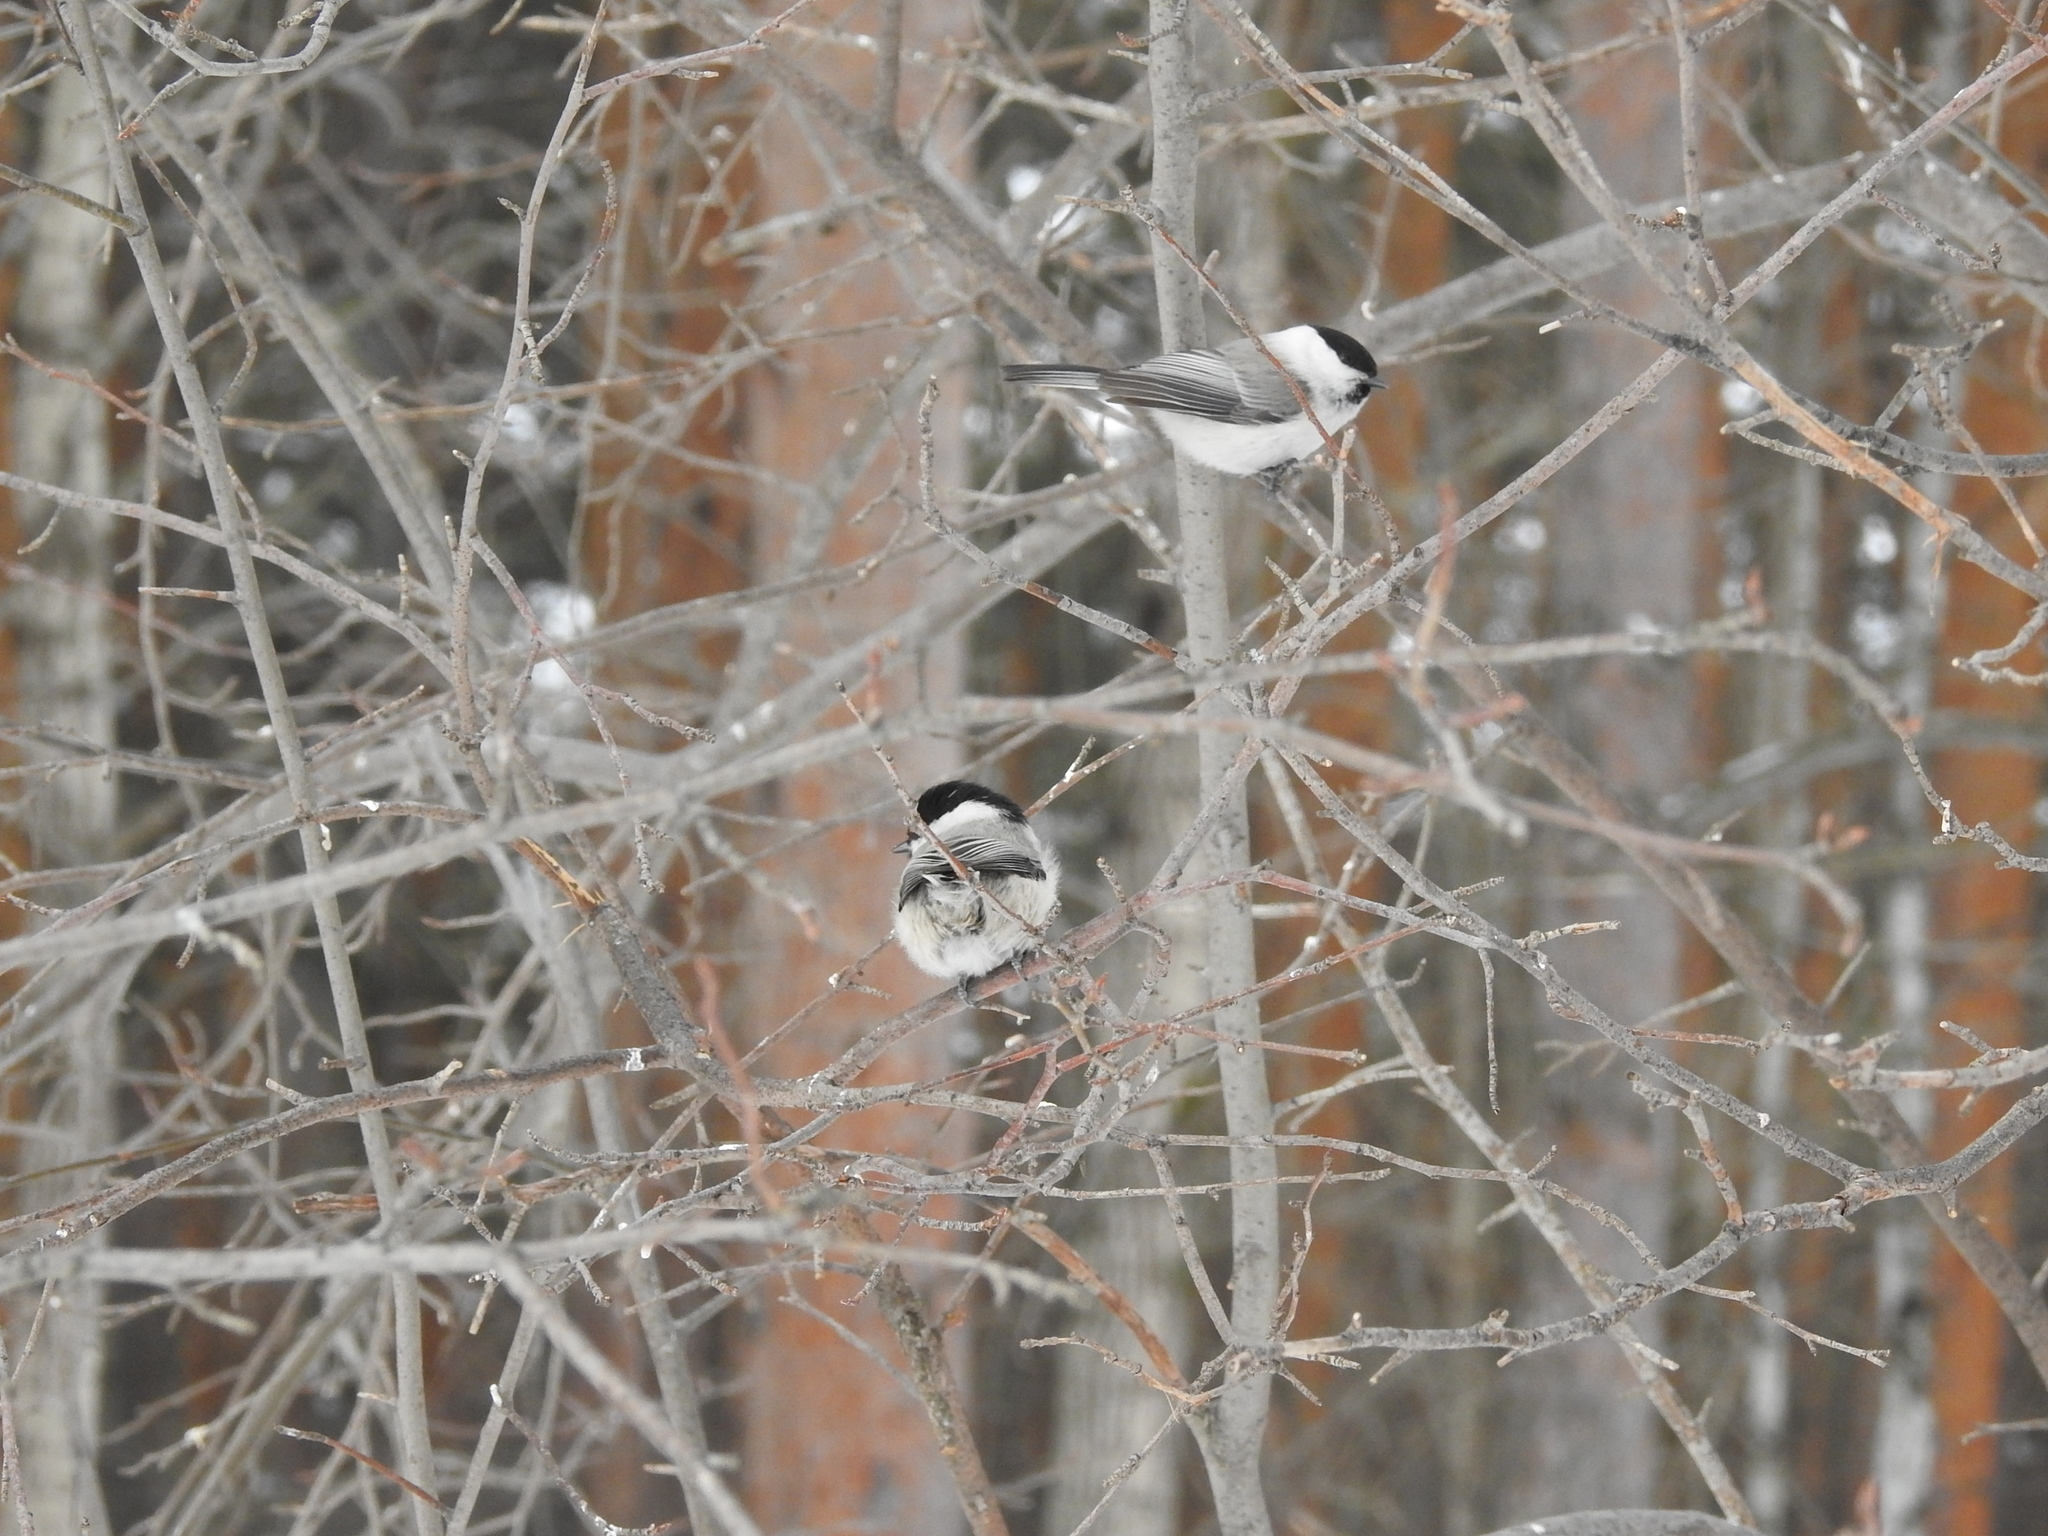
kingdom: Animalia
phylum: Chordata
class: Aves
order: Passeriformes
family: Paridae
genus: Poecile
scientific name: Poecile montanus
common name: Willow tit
